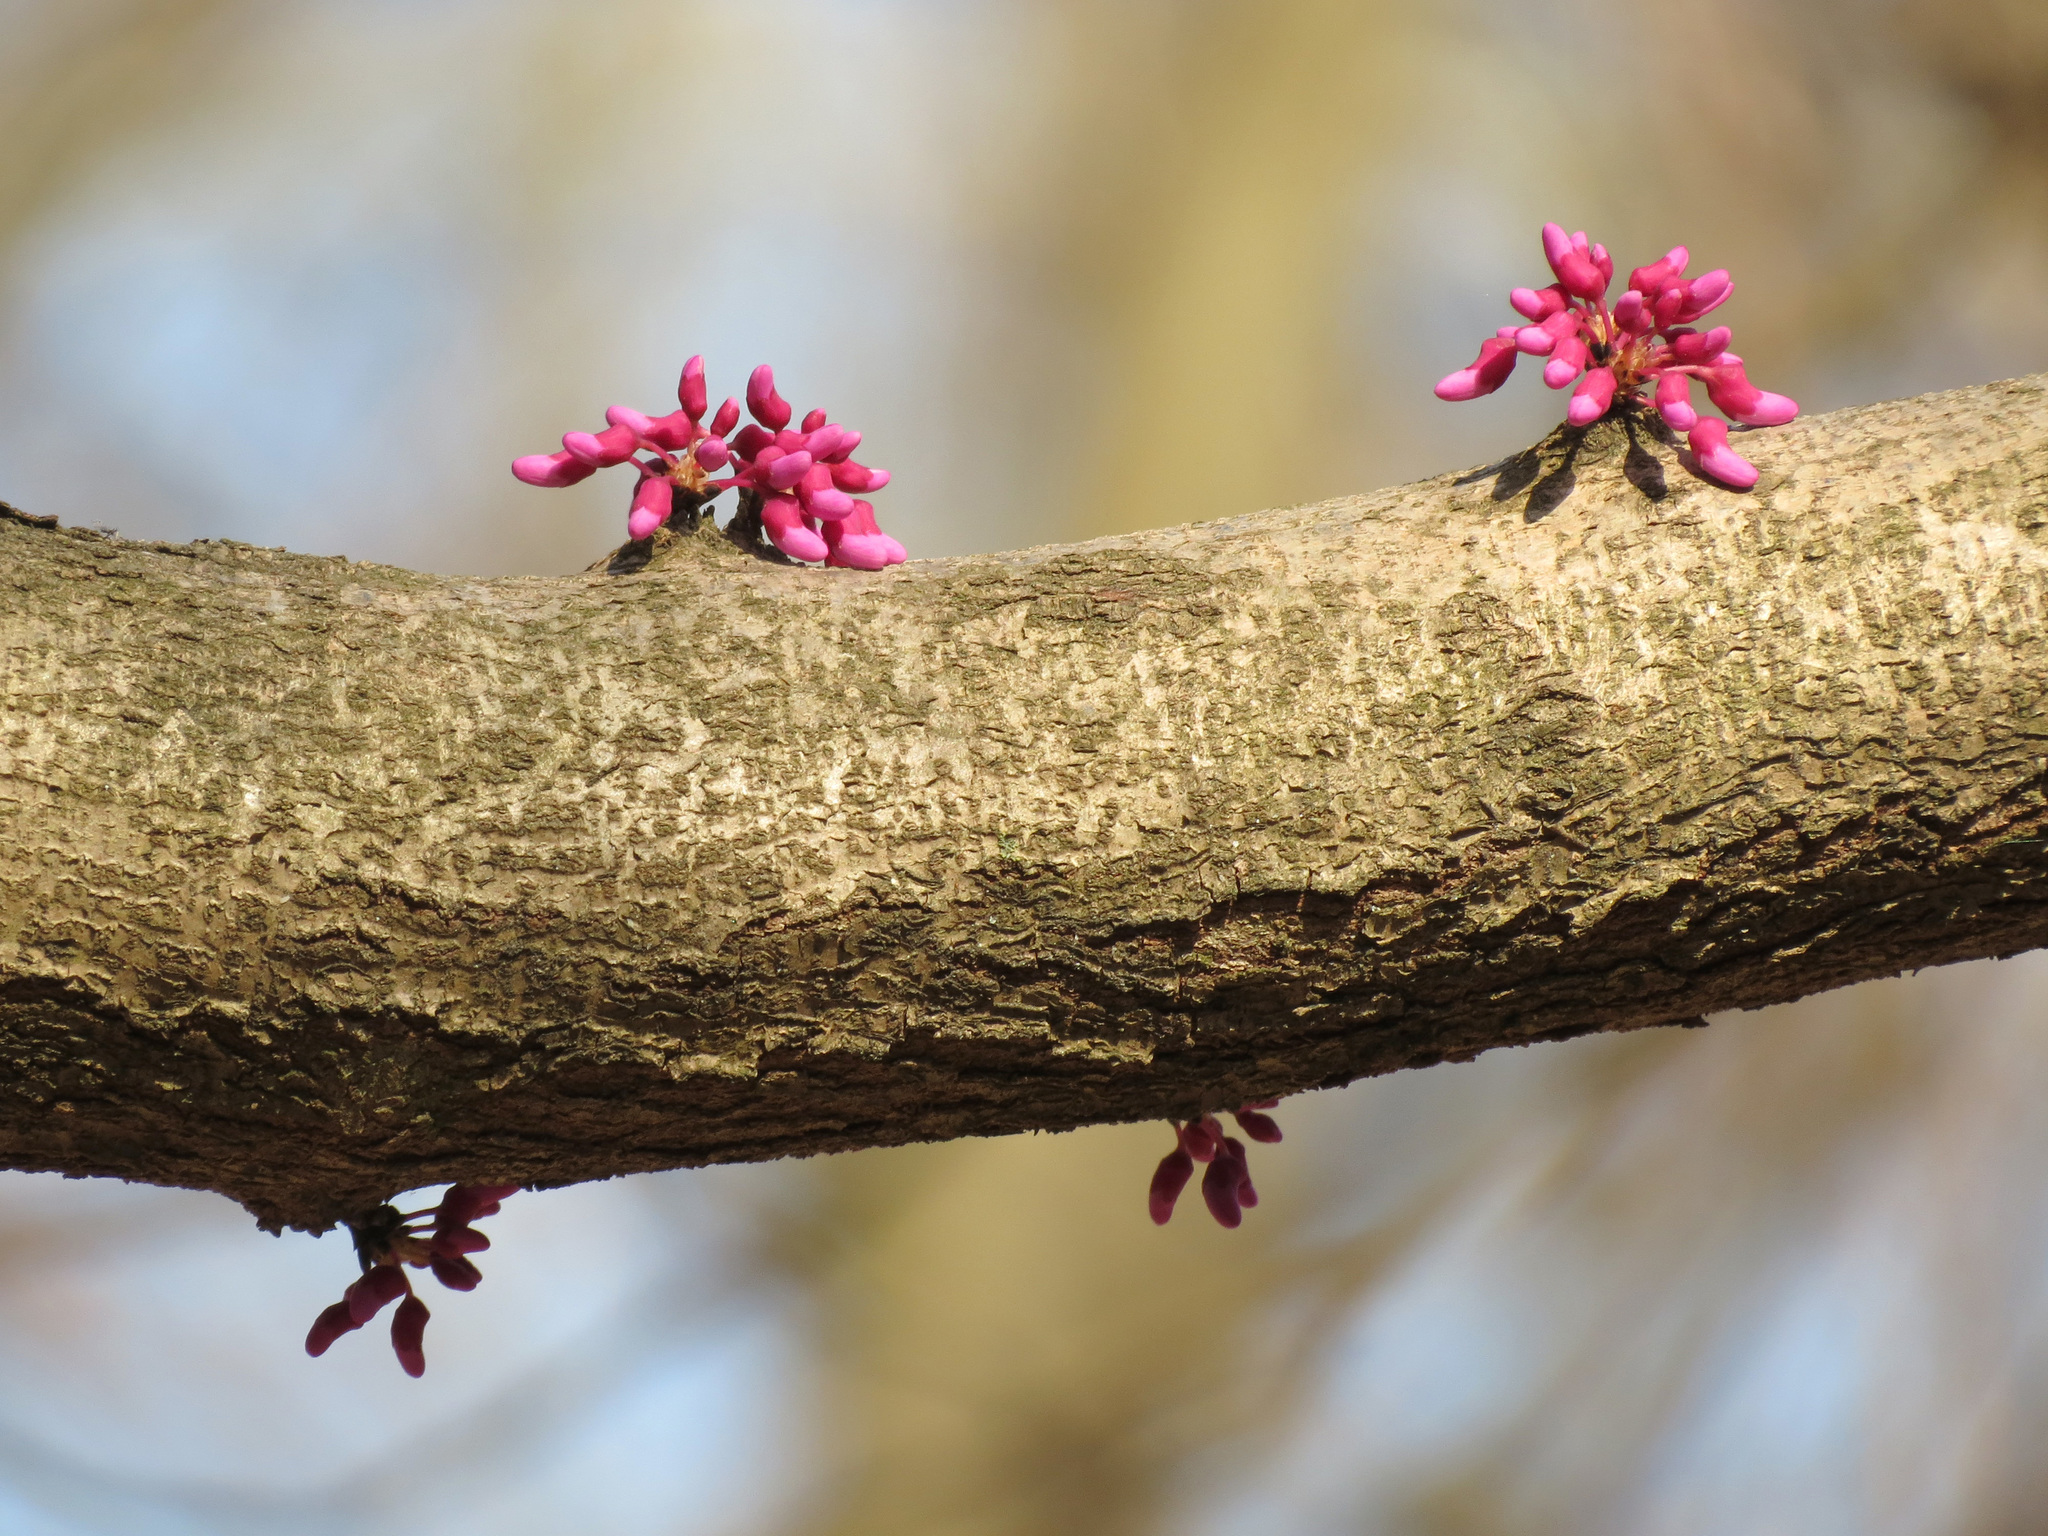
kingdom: Plantae
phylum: Tracheophyta
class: Magnoliopsida
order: Fabales
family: Fabaceae
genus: Cercis
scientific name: Cercis canadensis
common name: Eastern redbud
